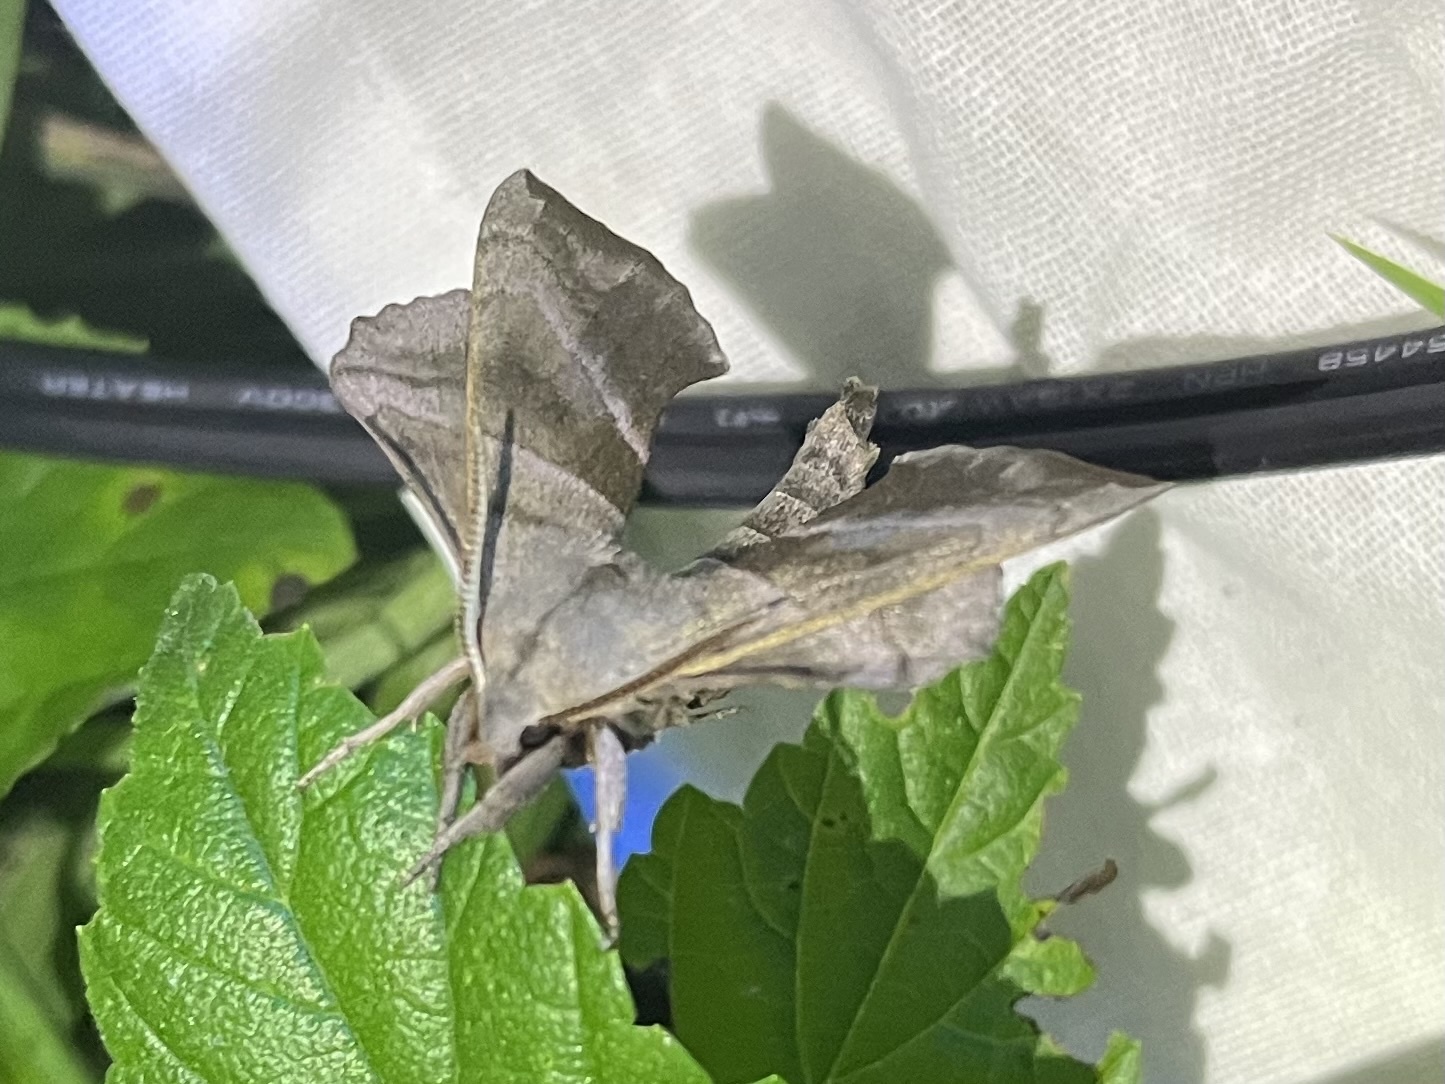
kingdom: Animalia
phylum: Arthropoda
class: Insecta
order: Lepidoptera
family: Sphingidae
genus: Amorpha
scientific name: Amorpha juglandis
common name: Walnut sphinx
